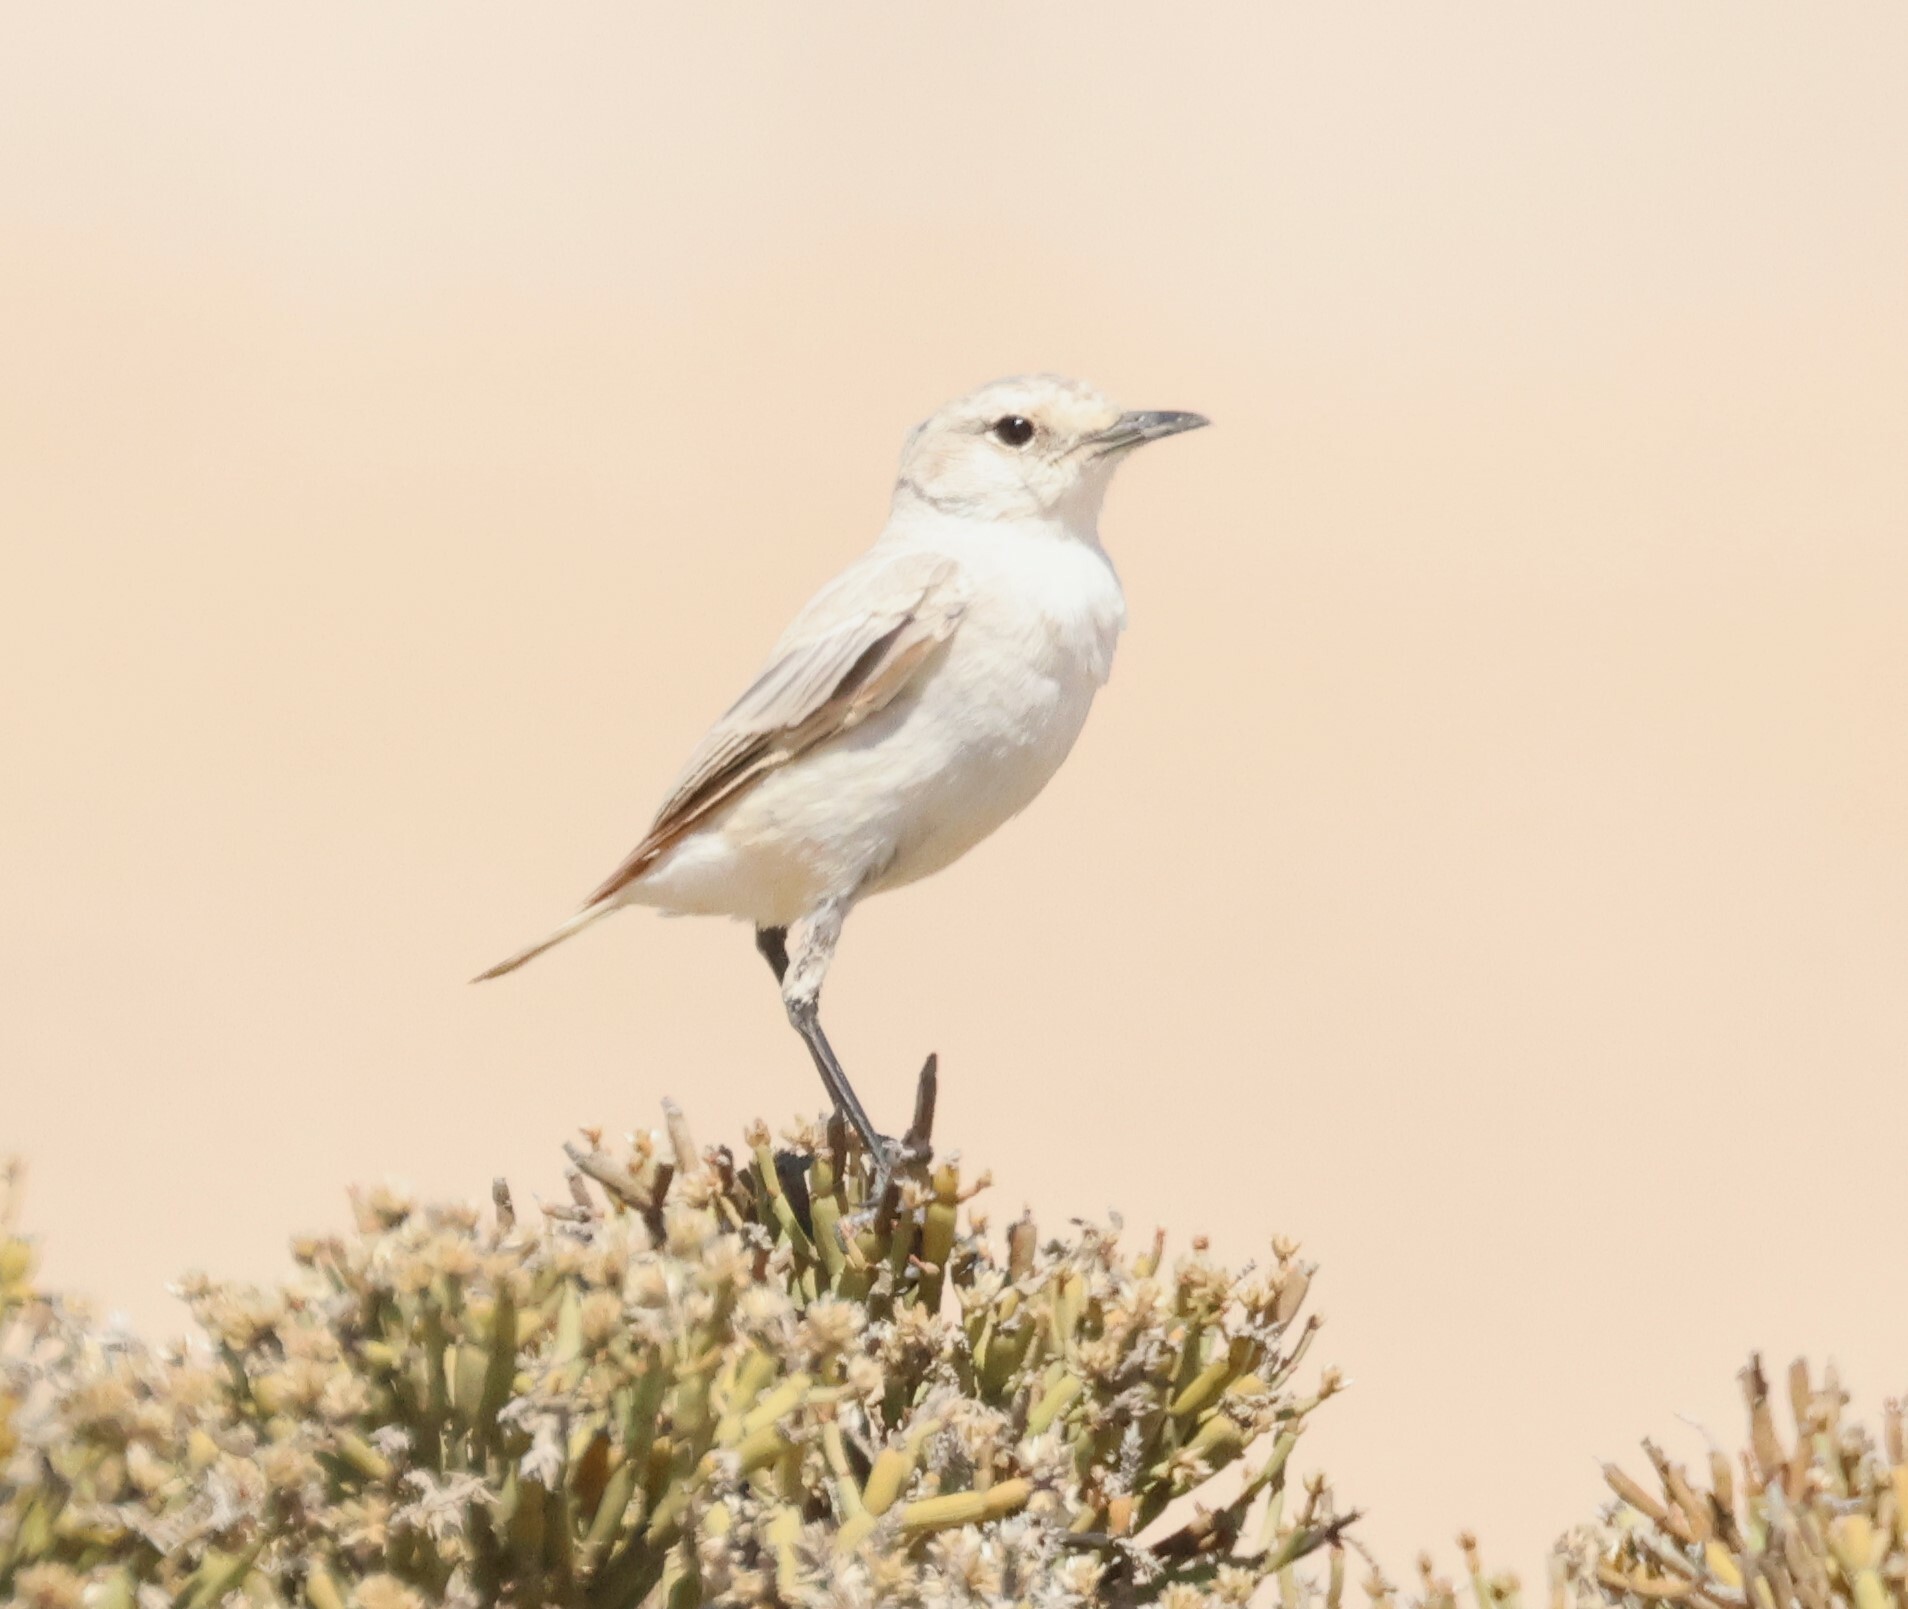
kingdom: Animalia
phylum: Chordata
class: Aves
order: Passeriformes
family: Muscicapidae
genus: Emarginata
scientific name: Emarginata tractrac
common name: Tractrac chat
